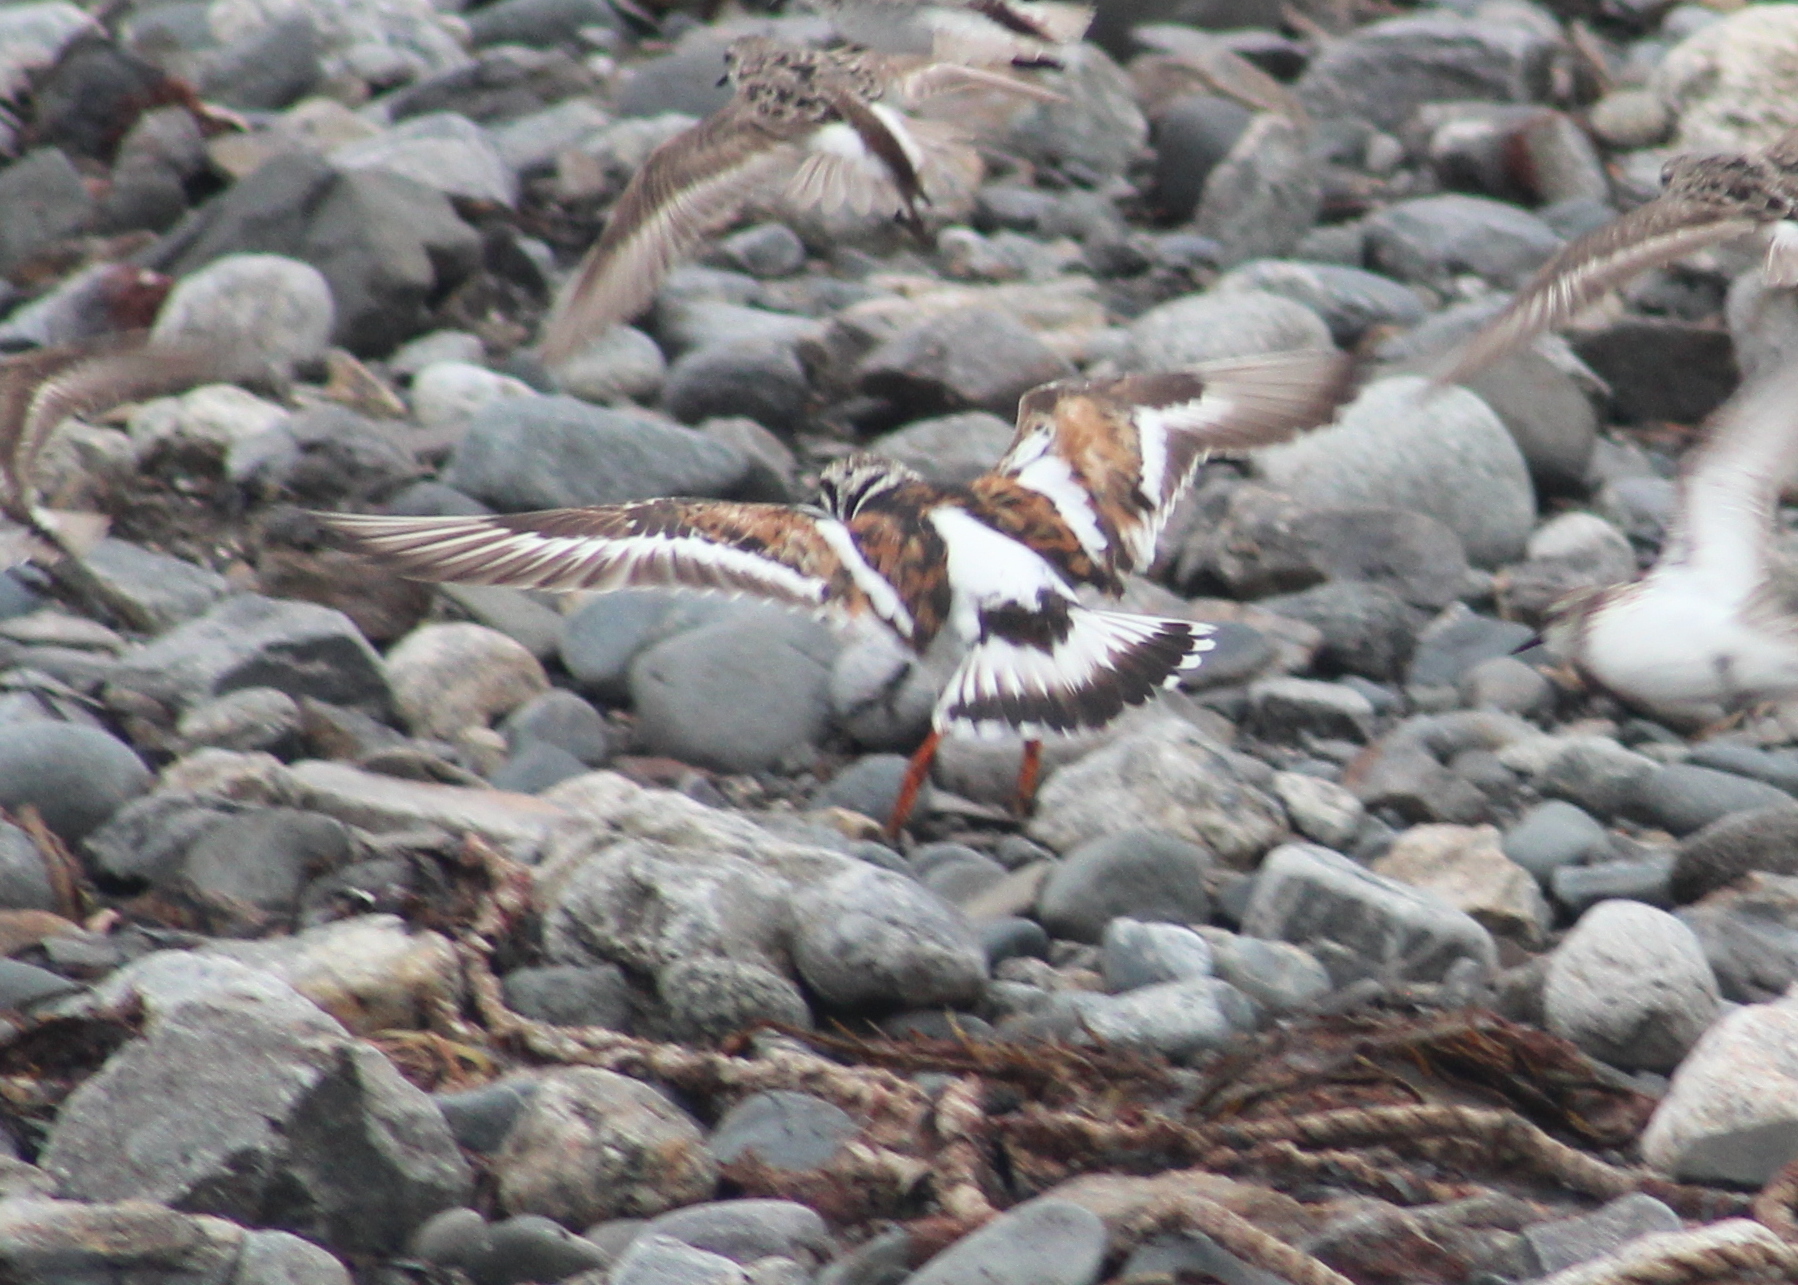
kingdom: Animalia
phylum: Chordata
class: Aves
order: Charadriiformes
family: Scolopacidae
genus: Arenaria
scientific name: Arenaria interpres
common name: Ruddy turnstone
